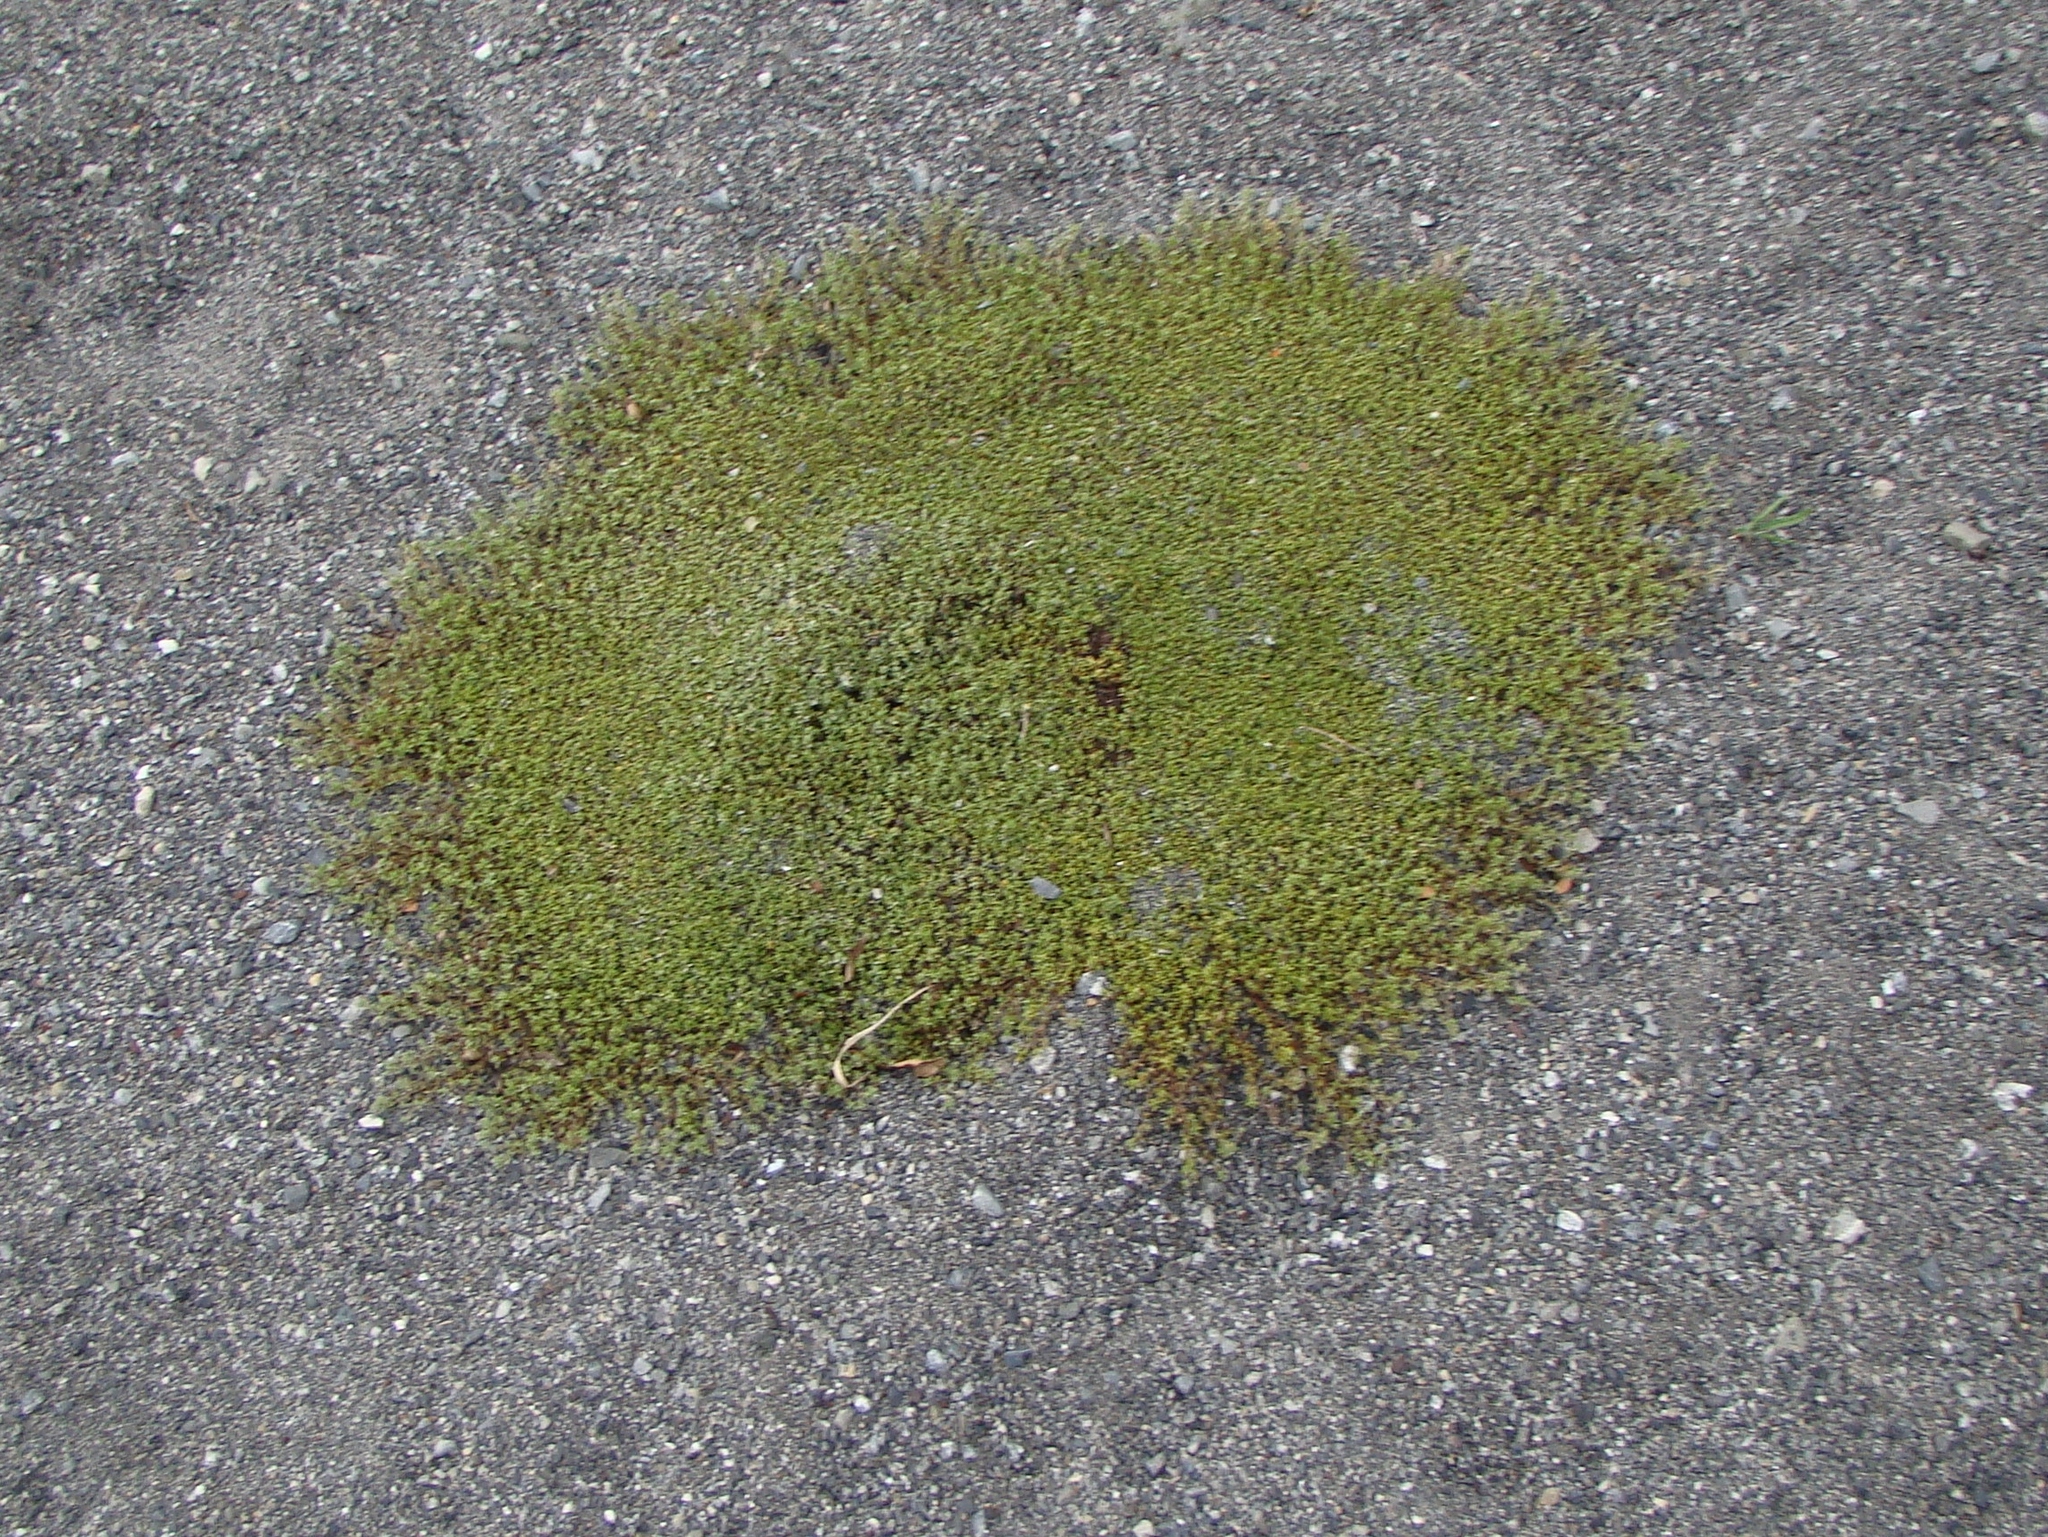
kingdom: Plantae
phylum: Tracheophyta
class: Magnoliopsida
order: Asterales
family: Asteraceae
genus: Raoulia
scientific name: Raoulia tenuicaulis
